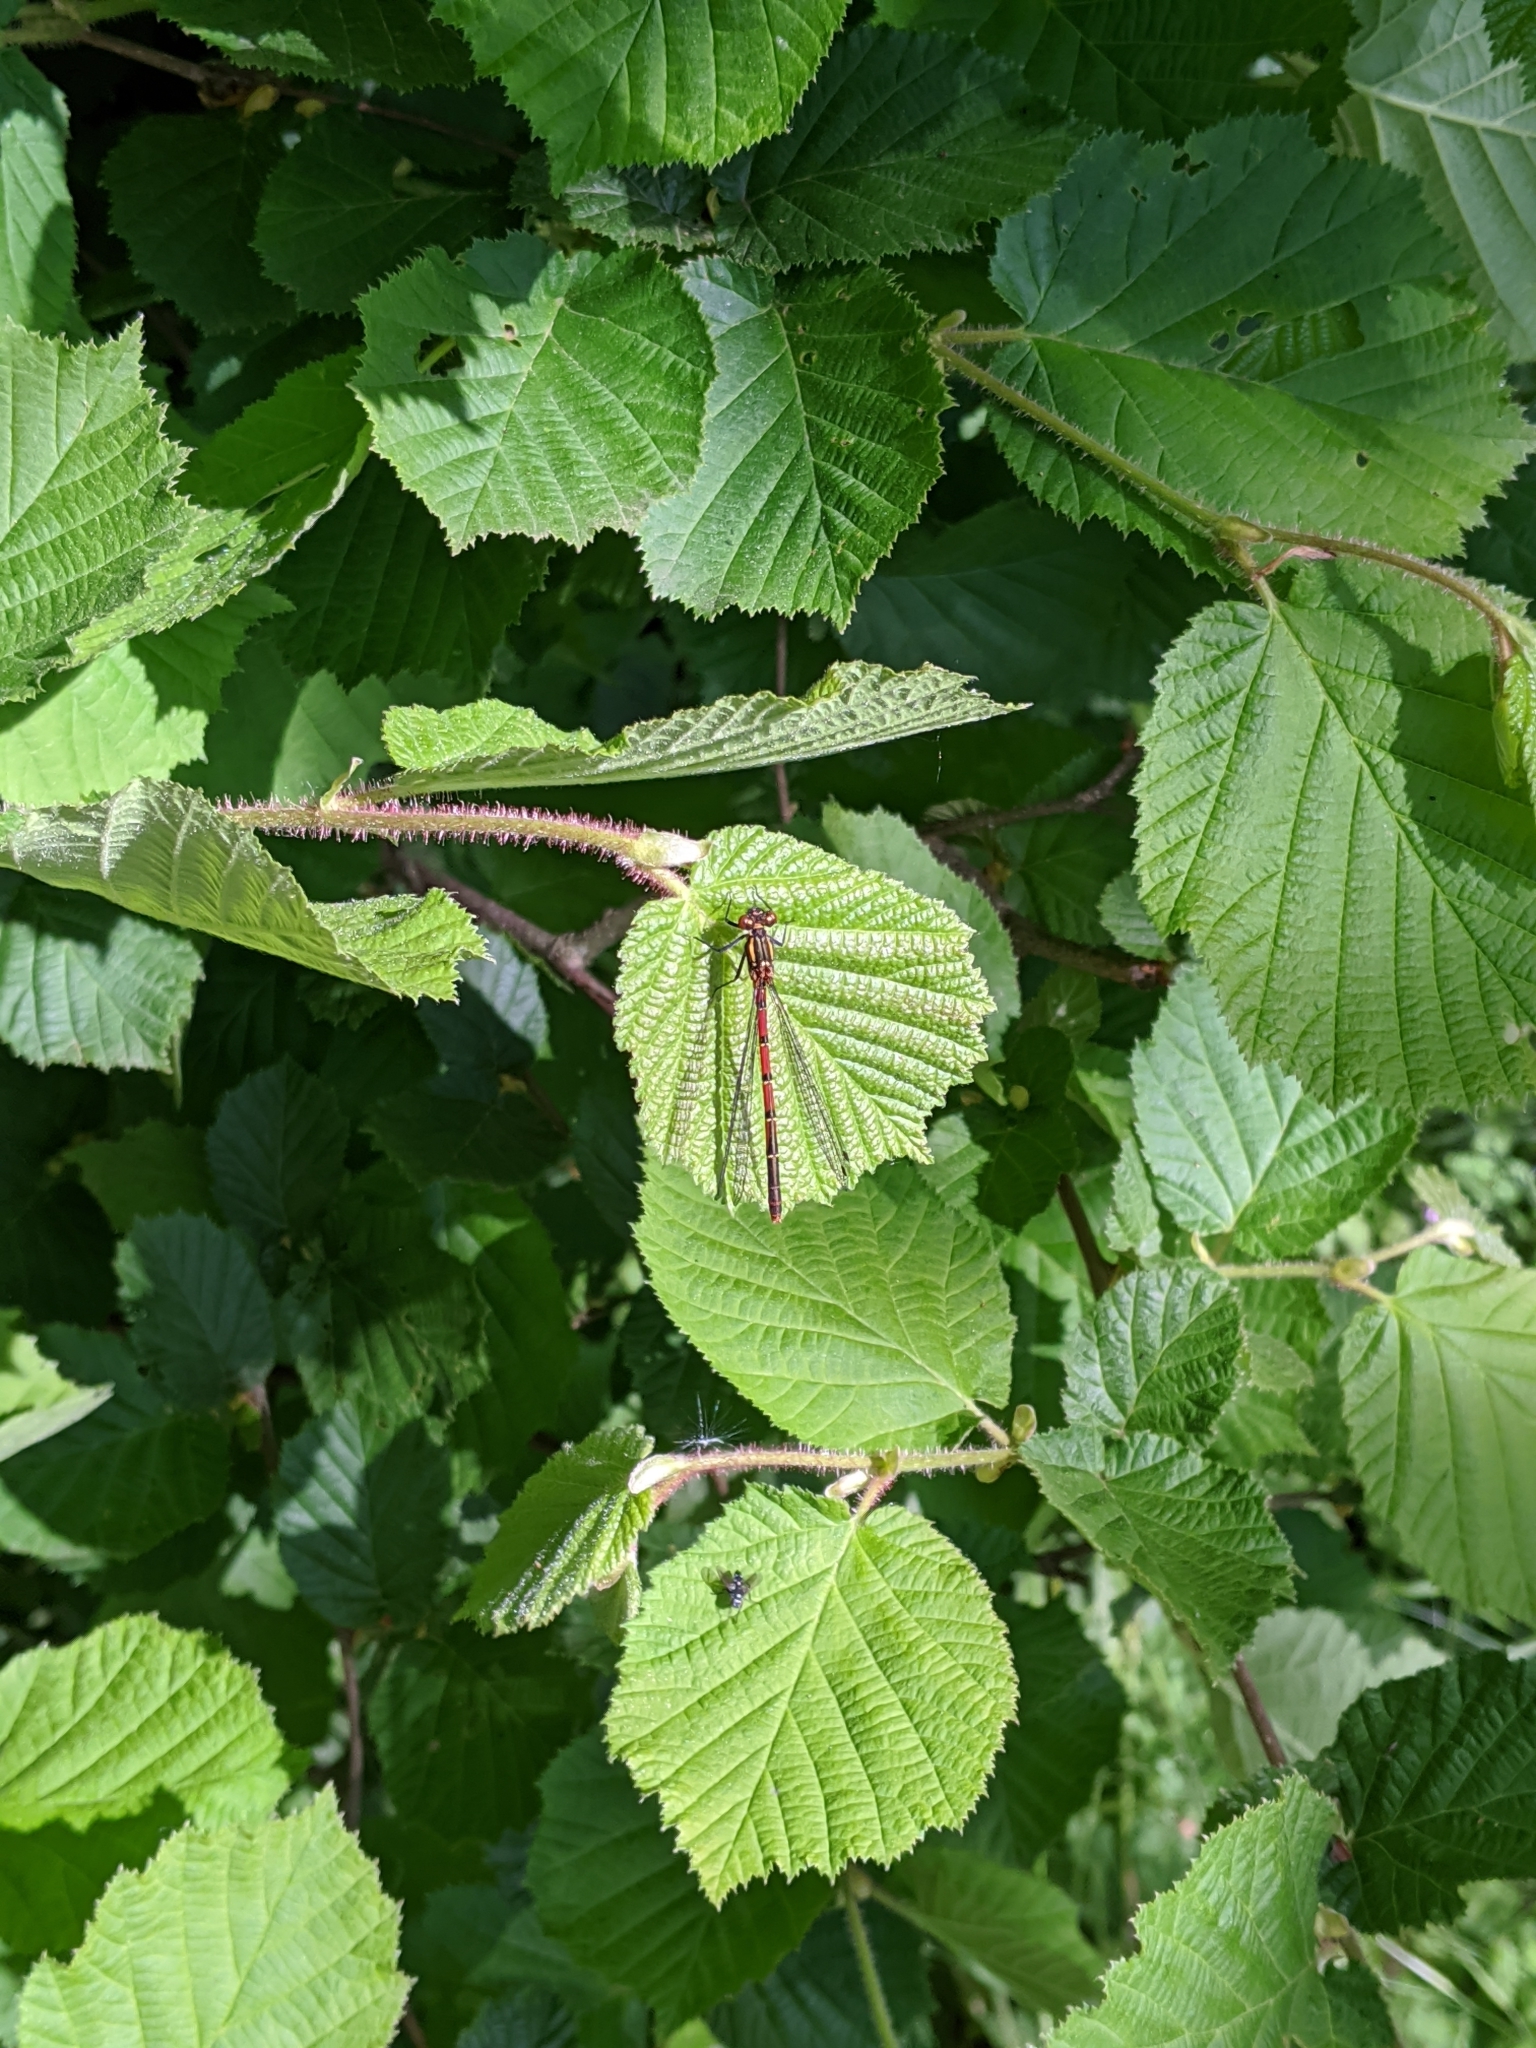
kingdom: Animalia
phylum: Arthropoda
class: Insecta
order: Odonata
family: Coenagrionidae
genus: Pyrrhosoma
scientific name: Pyrrhosoma nymphula
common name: Large red damsel
